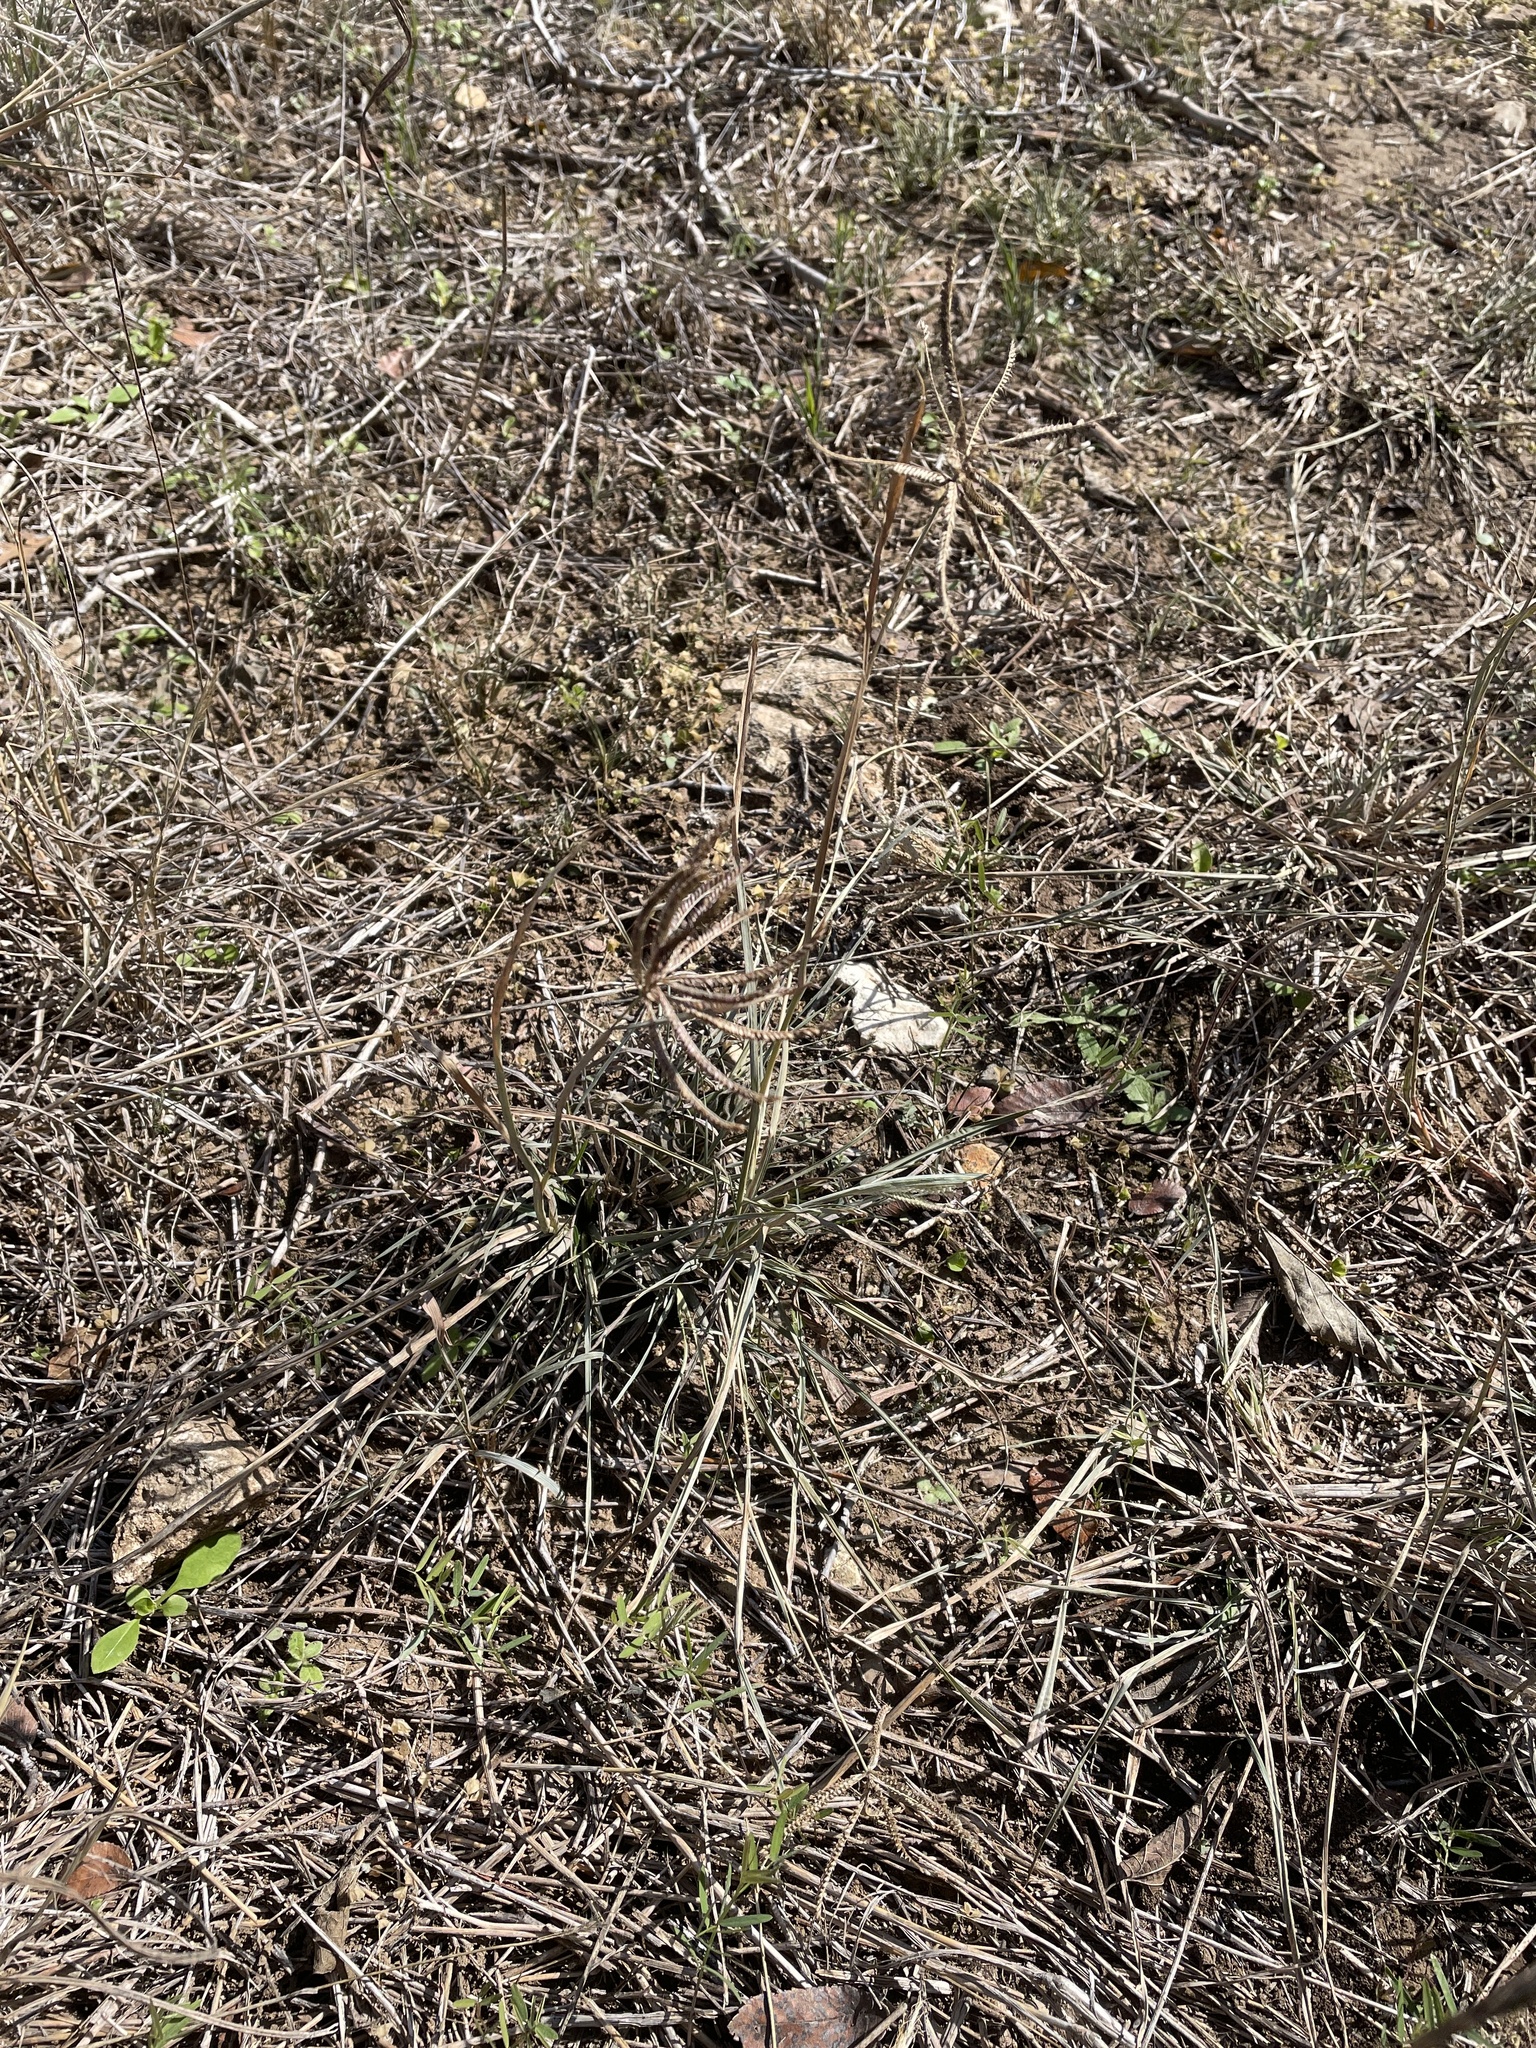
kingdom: Plantae
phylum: Tracheophyta
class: Liliopsida
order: Poales
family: Poaceae
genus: Chloris
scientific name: Chloris cucullata
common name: Hooded windmill grass
